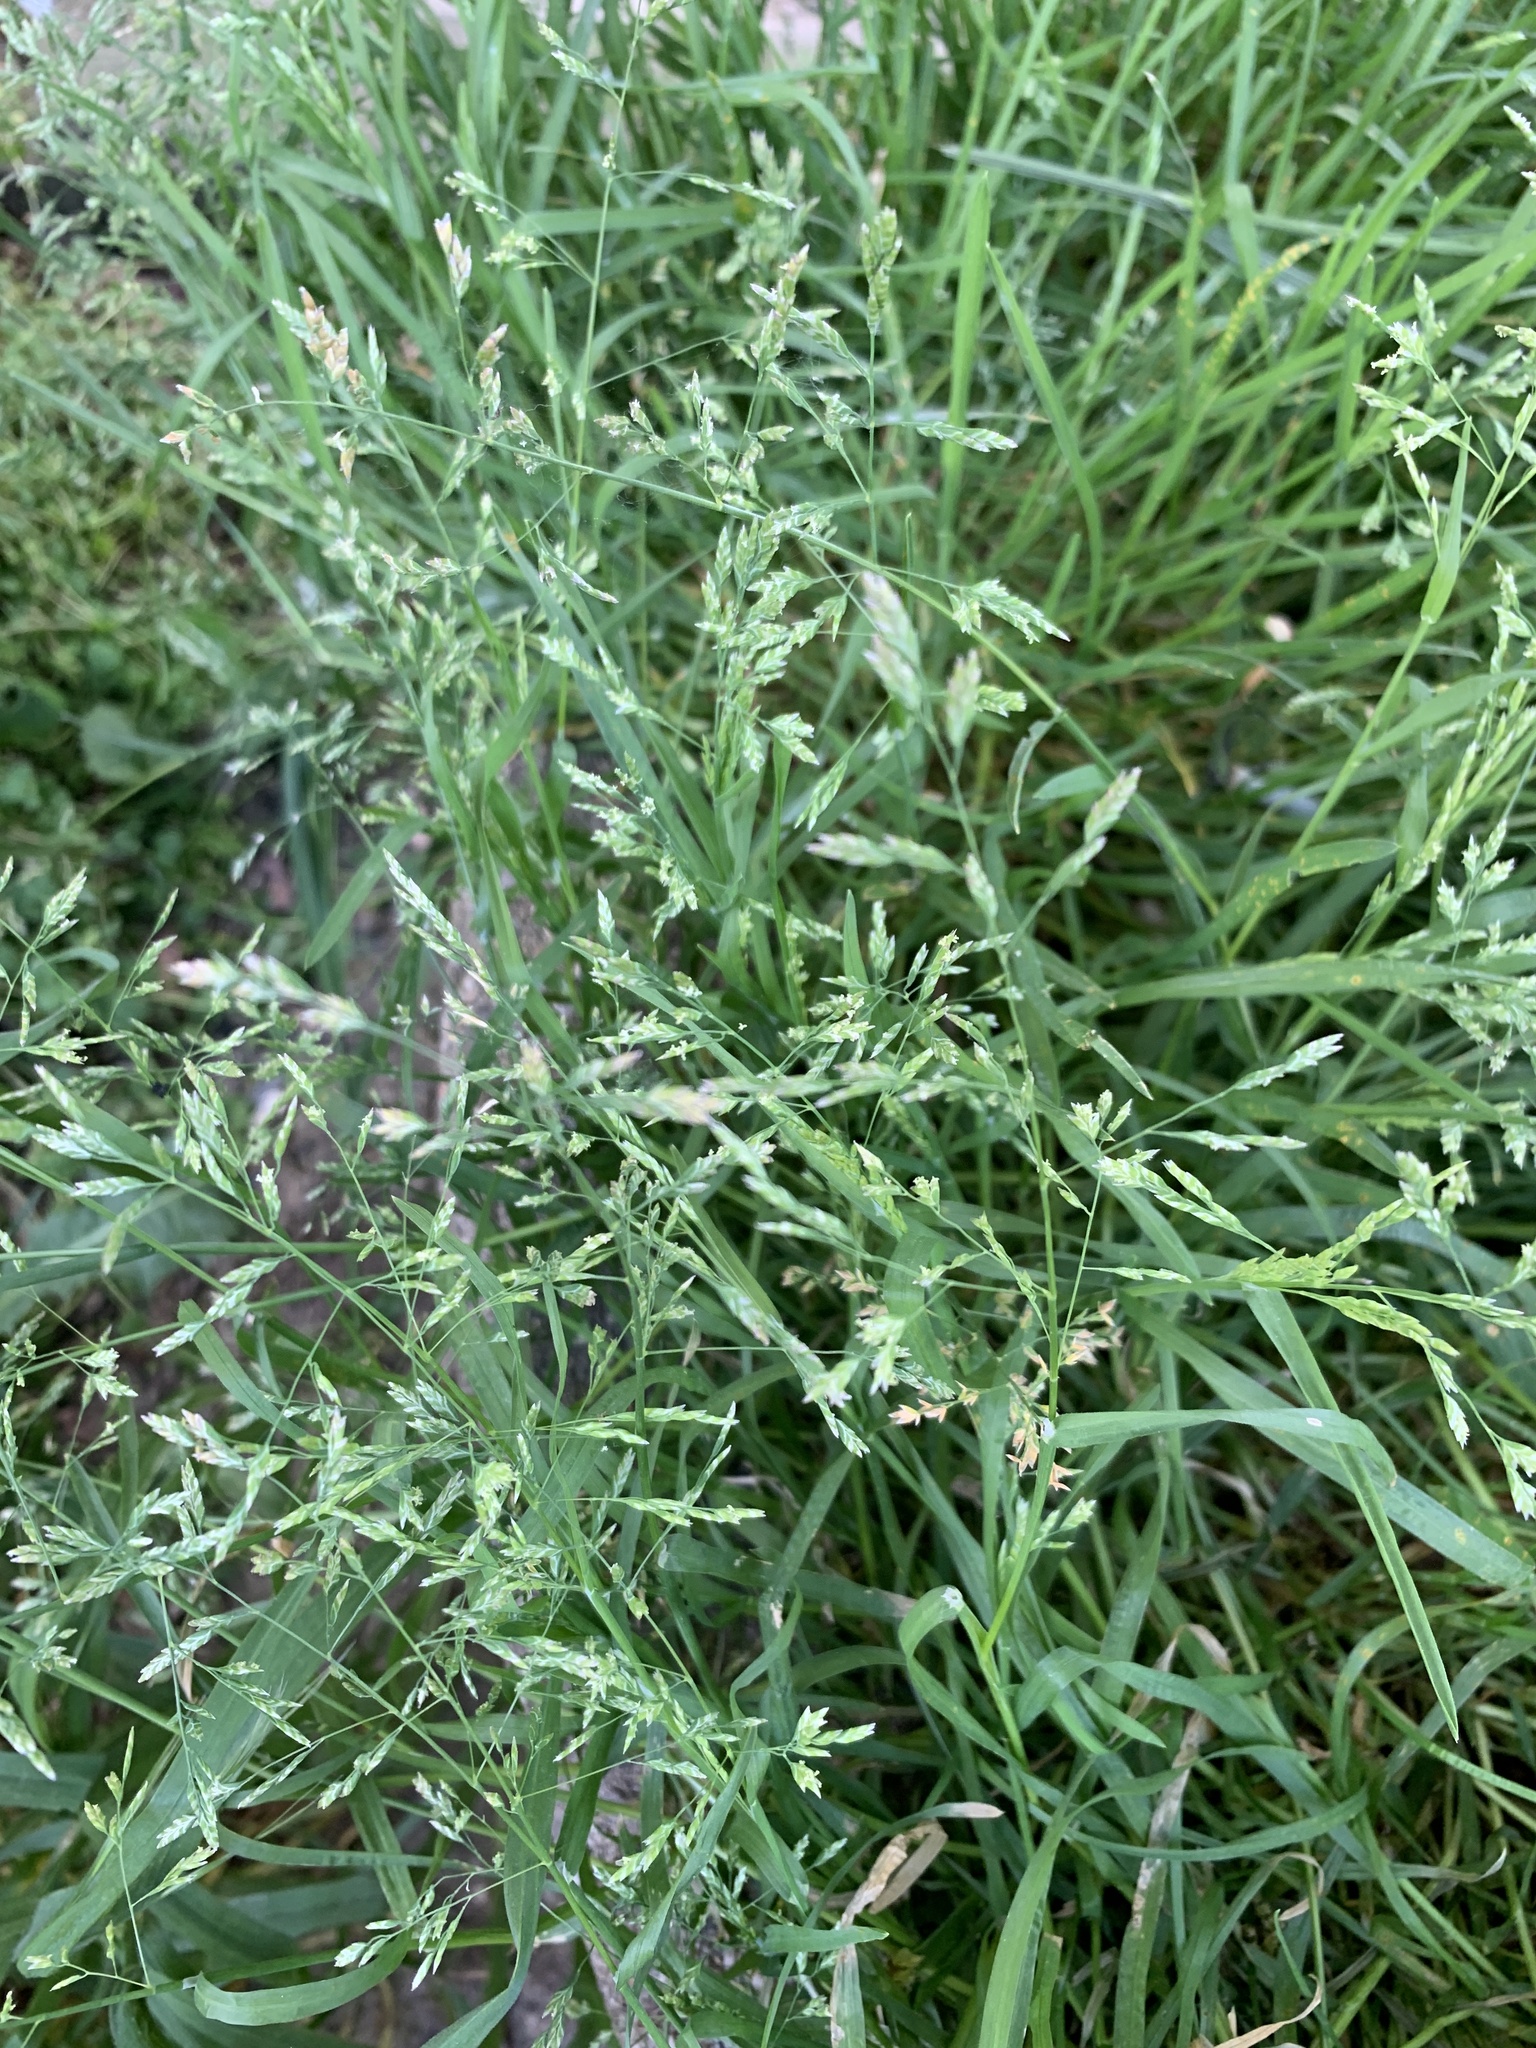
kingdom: Plantae
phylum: Tracheophyta
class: Liliopsida
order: Poales
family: Poaceae
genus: Poa
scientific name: Poa annua
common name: Annual bluegrass
